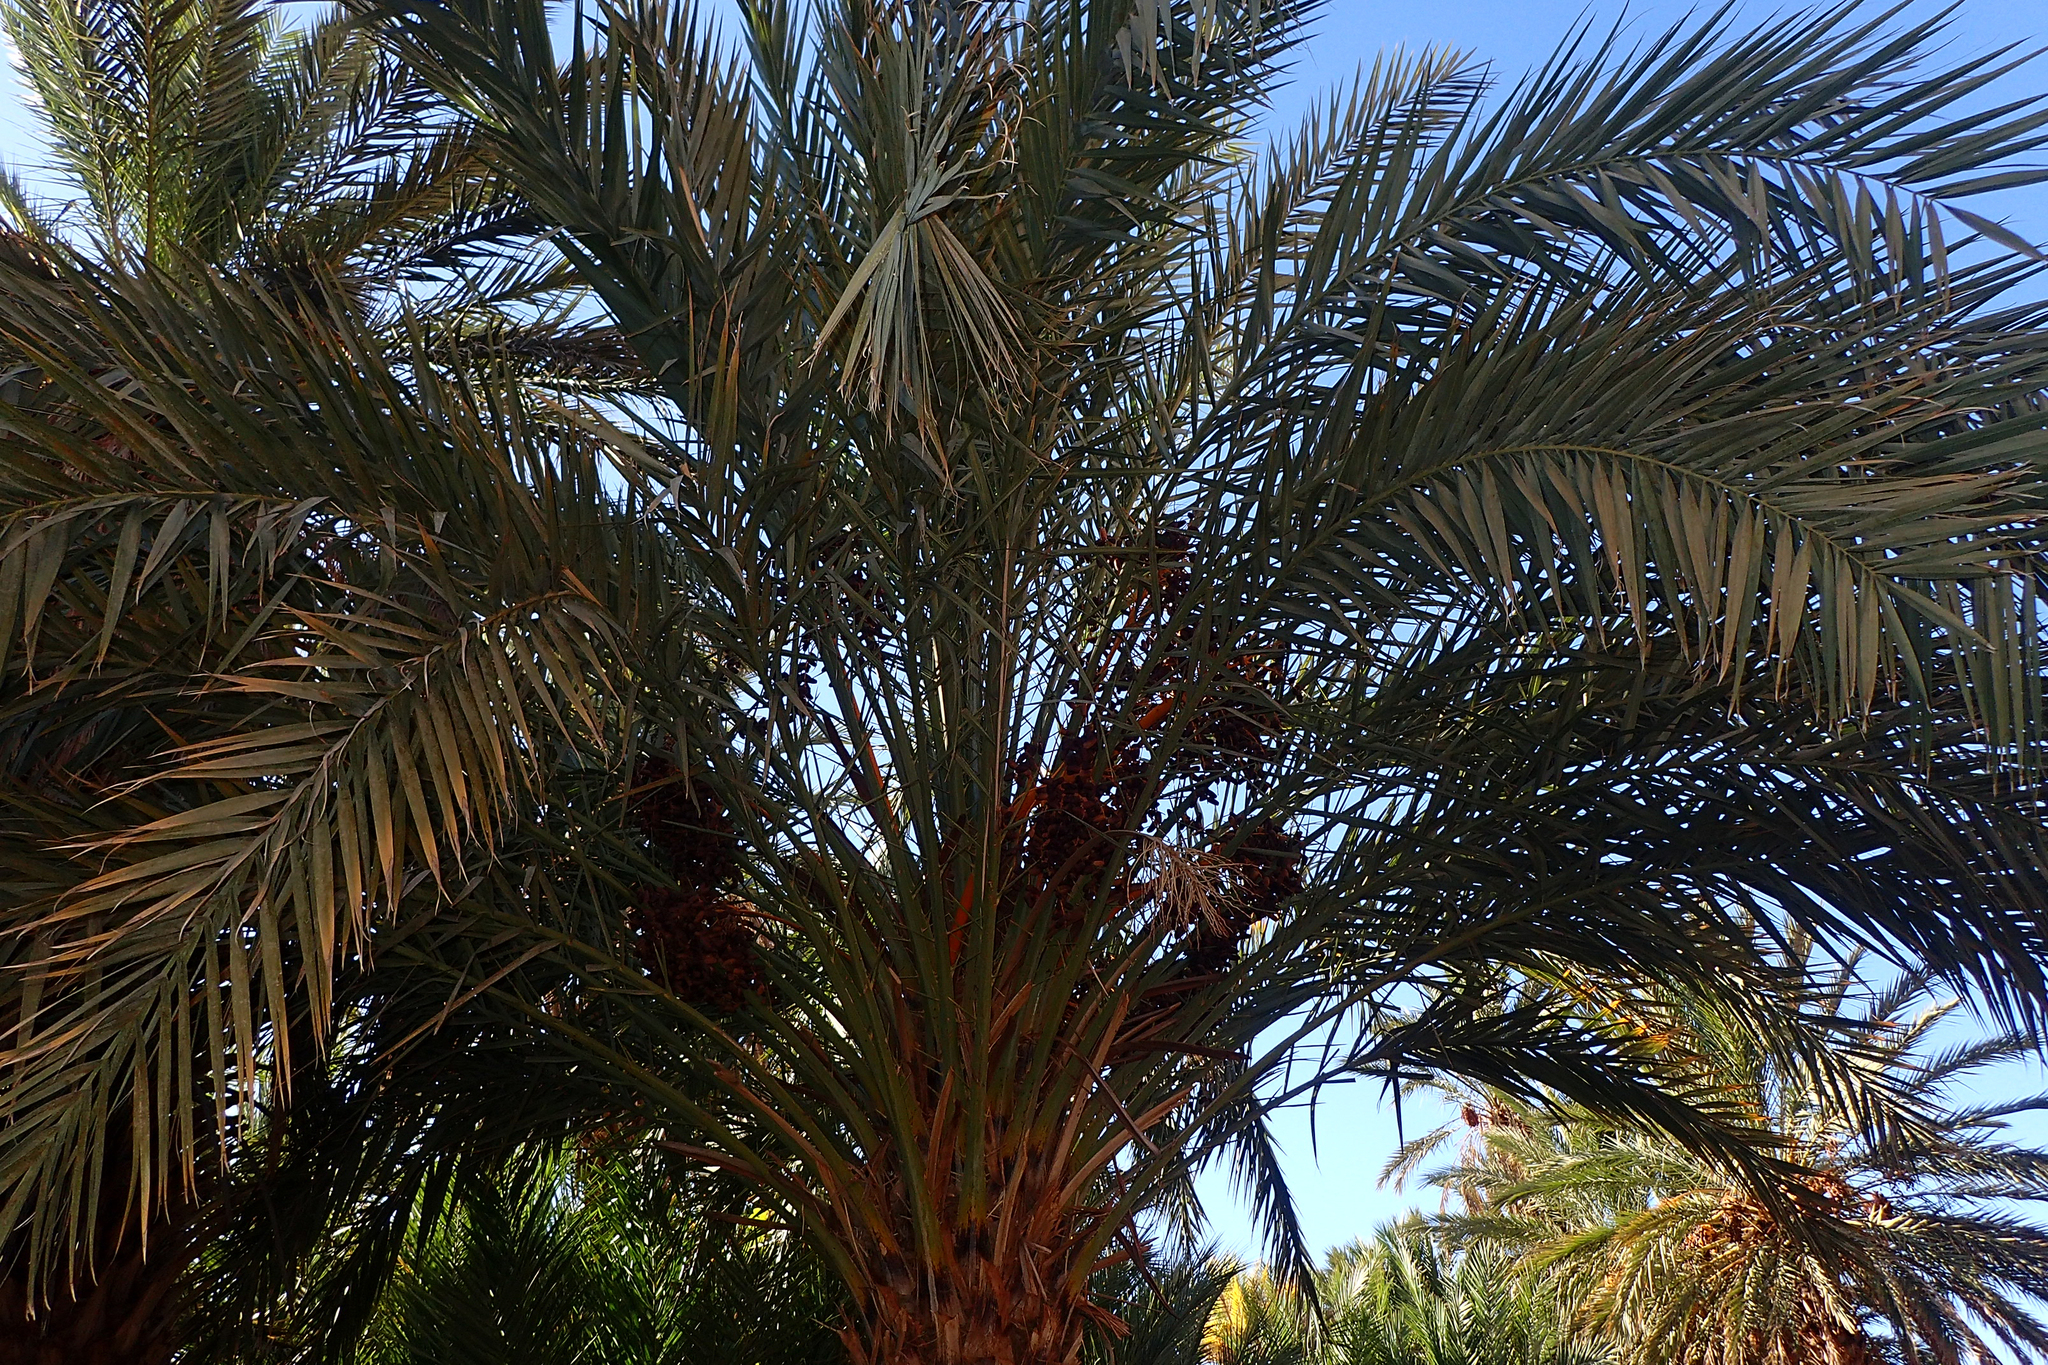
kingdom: Plantae
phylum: Tracheophyta
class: Liliopsida
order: Arecales
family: Arecaceae
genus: Phoenix
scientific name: Phoenix dactylifera
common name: Date palm
